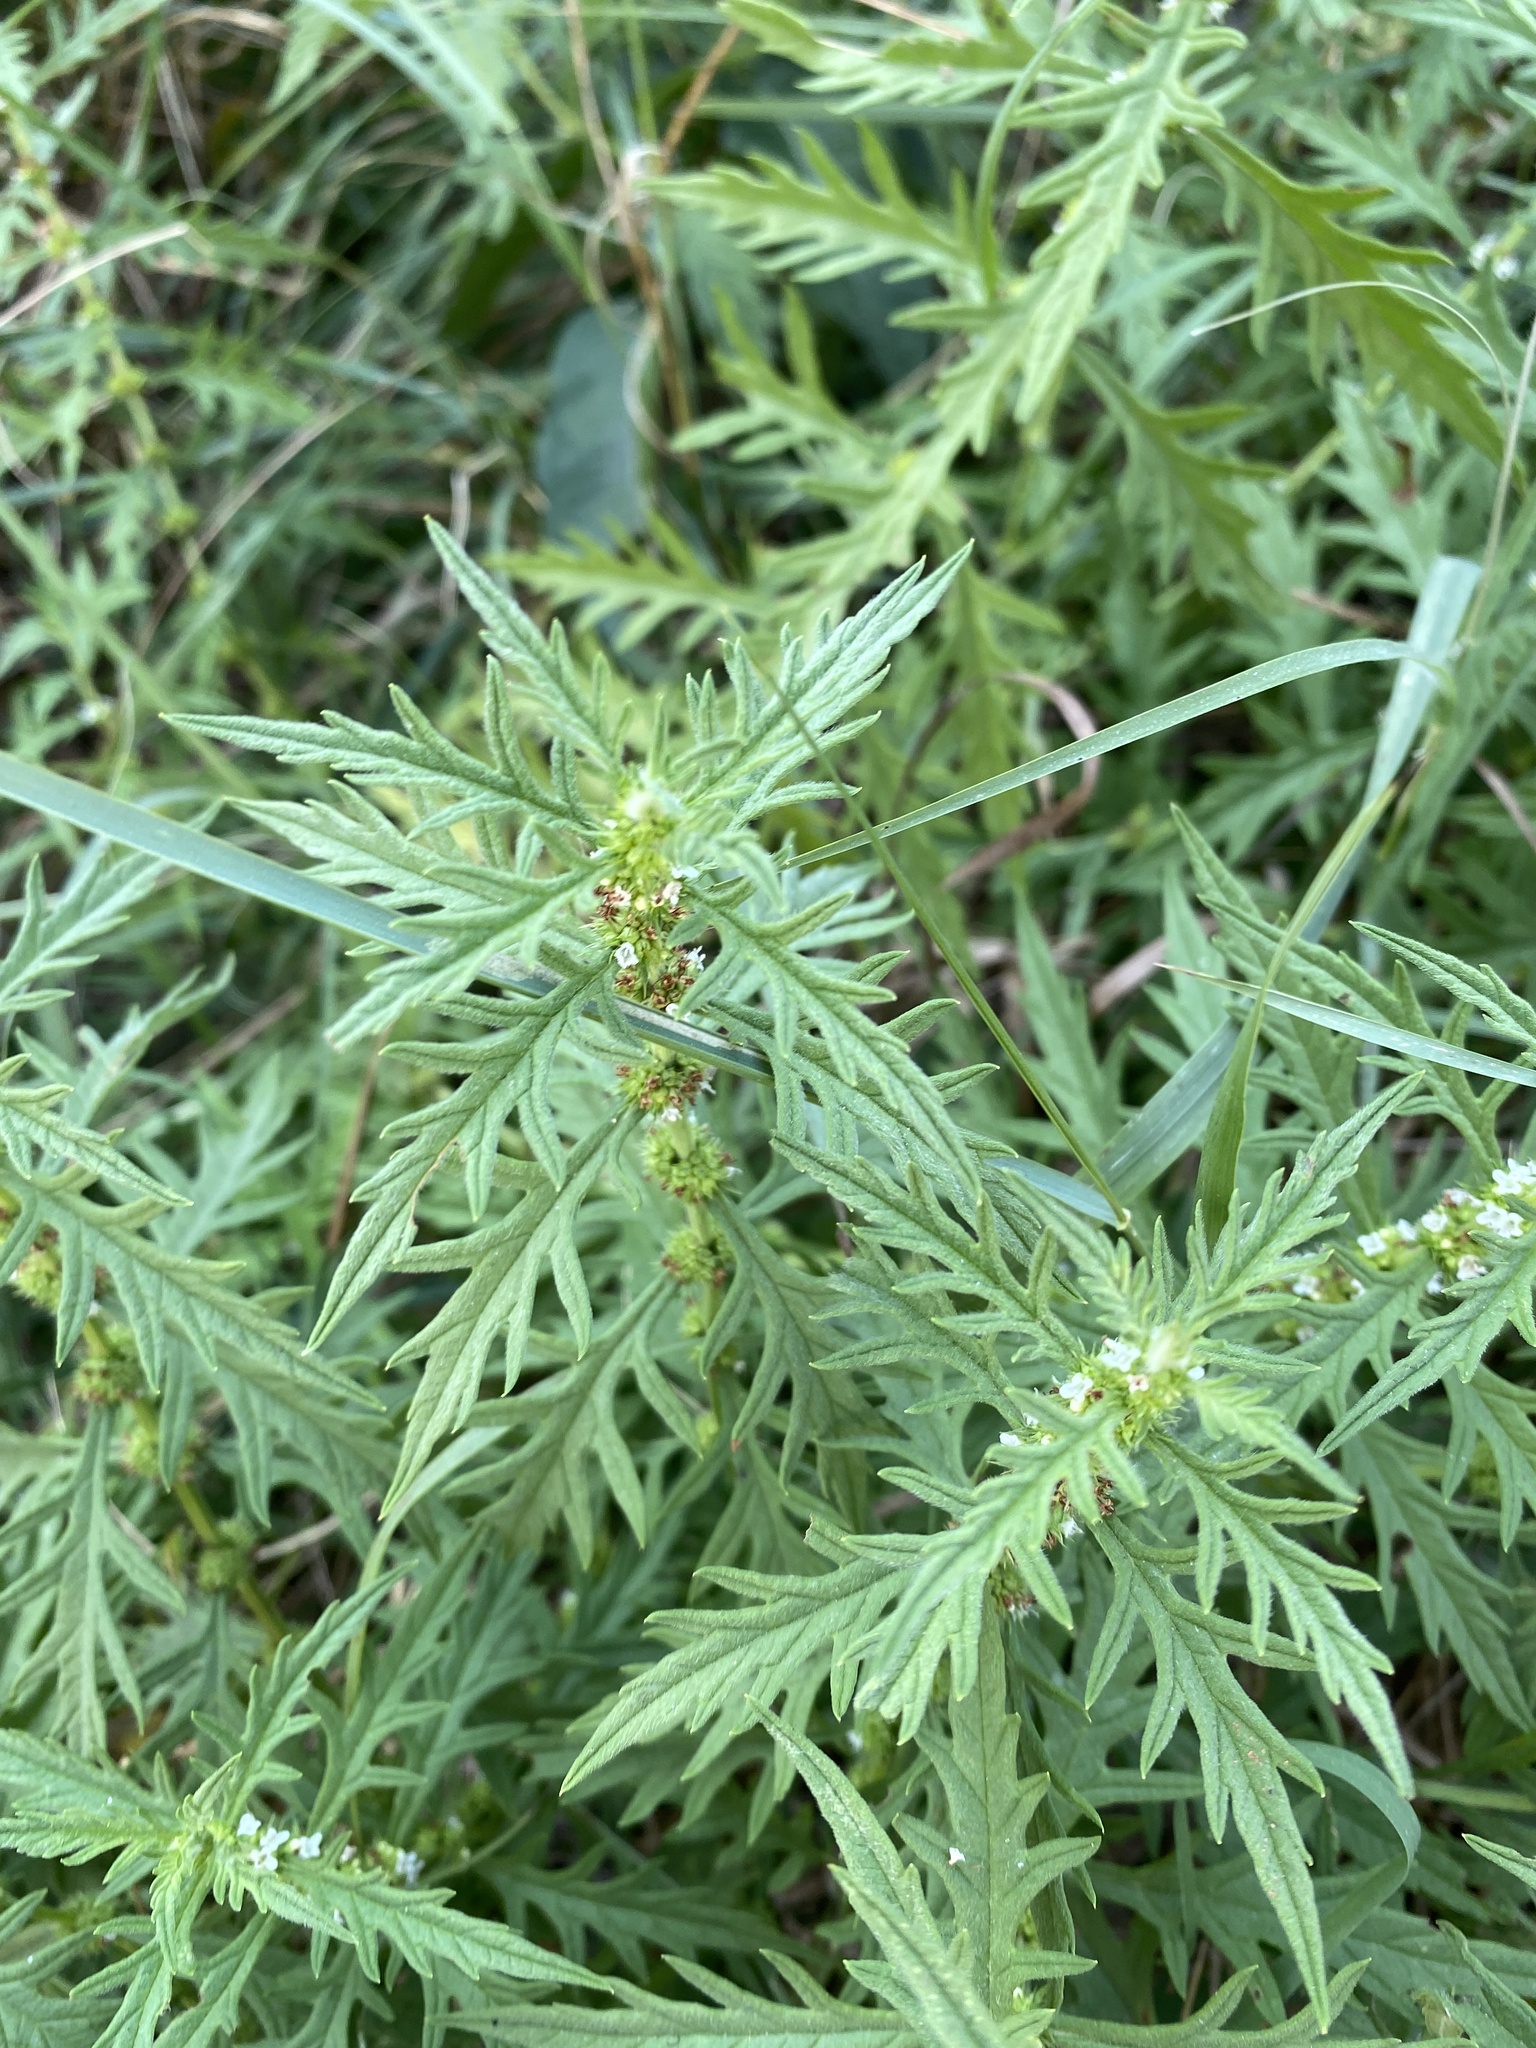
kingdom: Plantae
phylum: Tracheophyta
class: Magnoliopsida
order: Lamiales
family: Lamiaceae
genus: Lycopus
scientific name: Lycopus exaltatus
